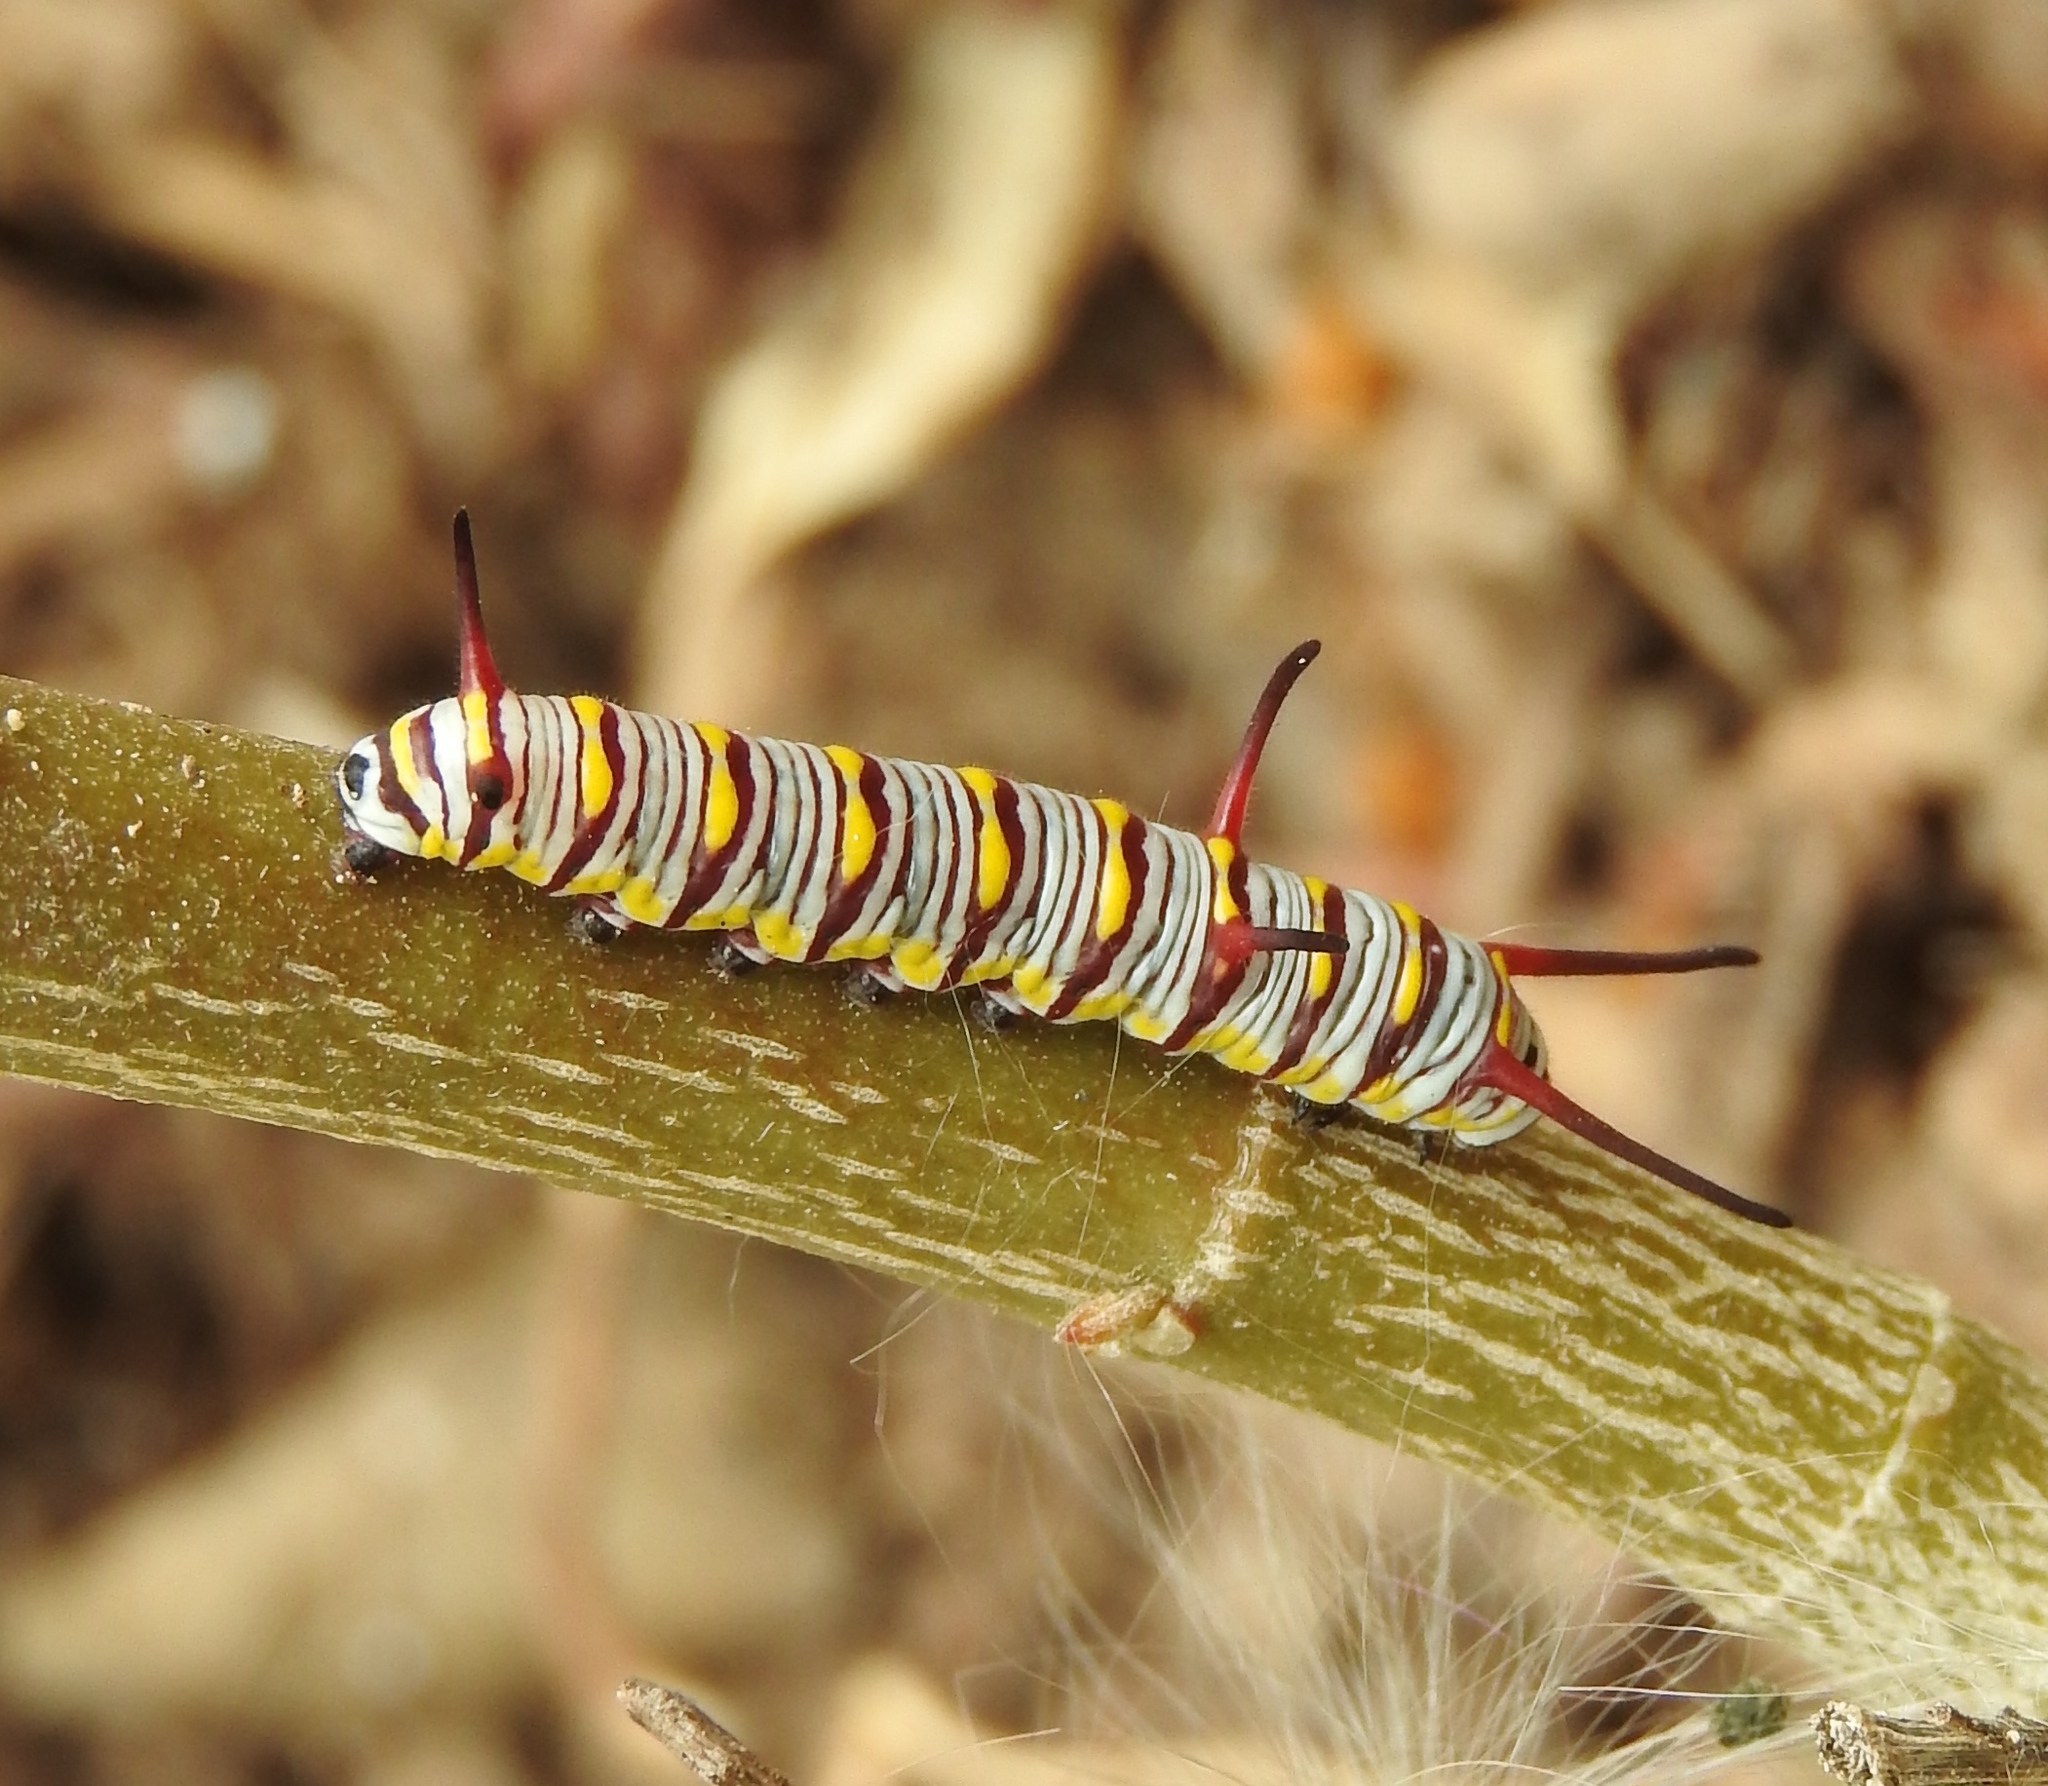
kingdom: Animalia
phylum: Arthropoda
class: Insecta
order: Lepidoptera
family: Nymphalidae
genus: Danaus
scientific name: Danaus
